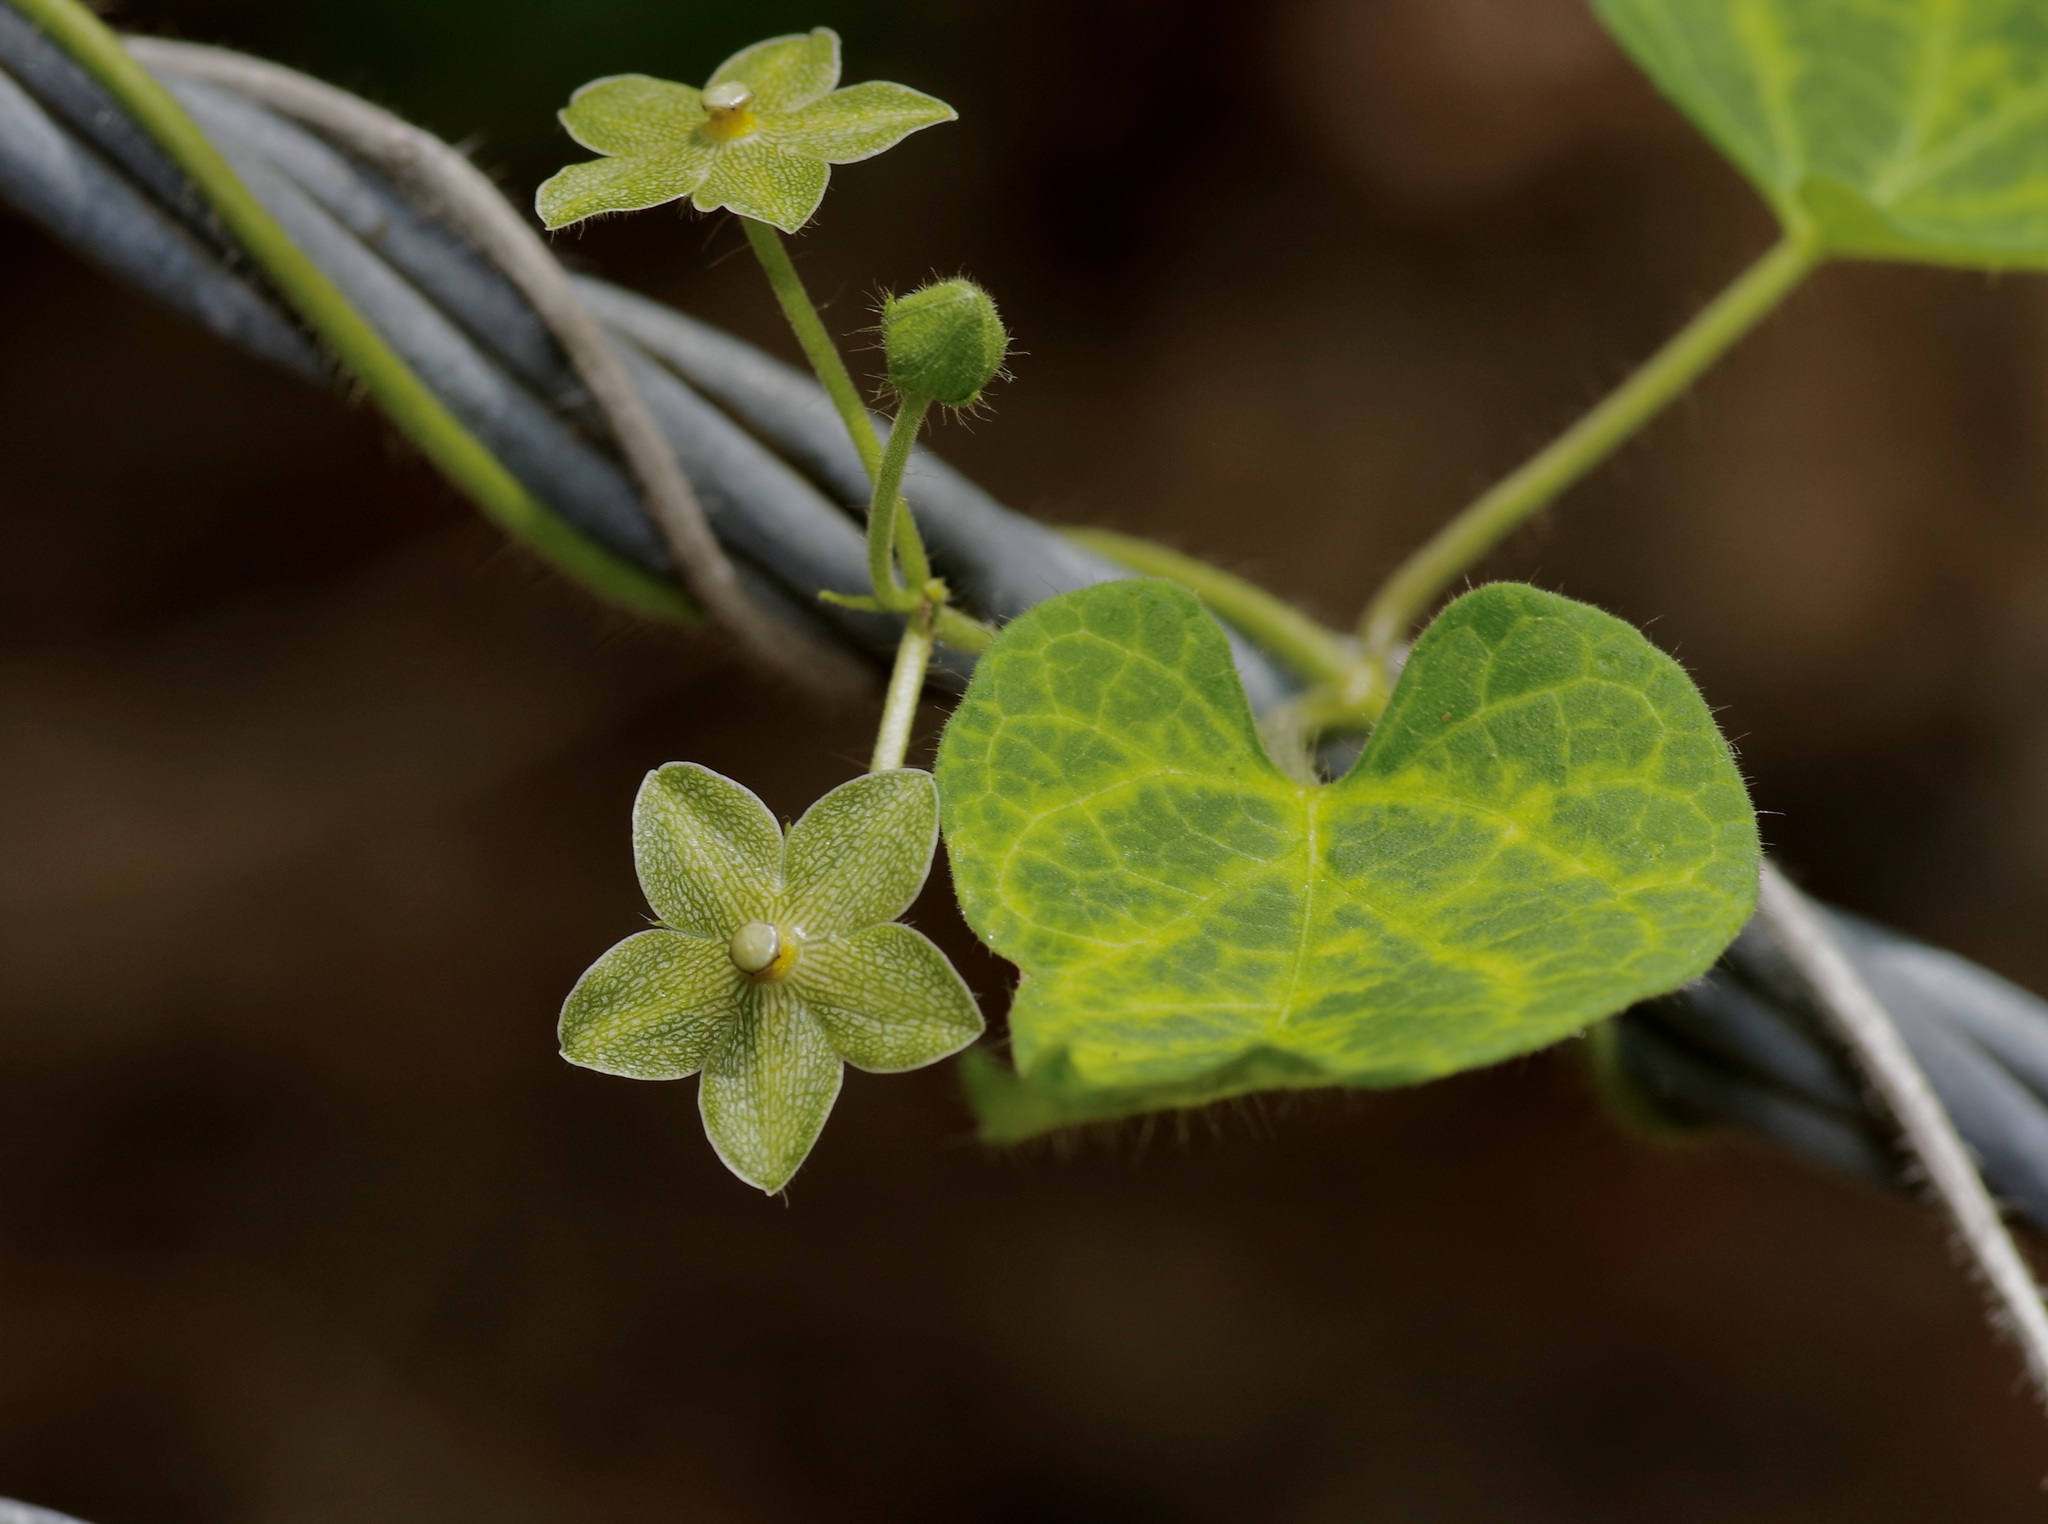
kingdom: Plantae
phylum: Tracheophyta
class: Magnoliopsida
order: Gentianales
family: Apocynaceae
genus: Dictyanthus
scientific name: Dictyanthus reticulatus
